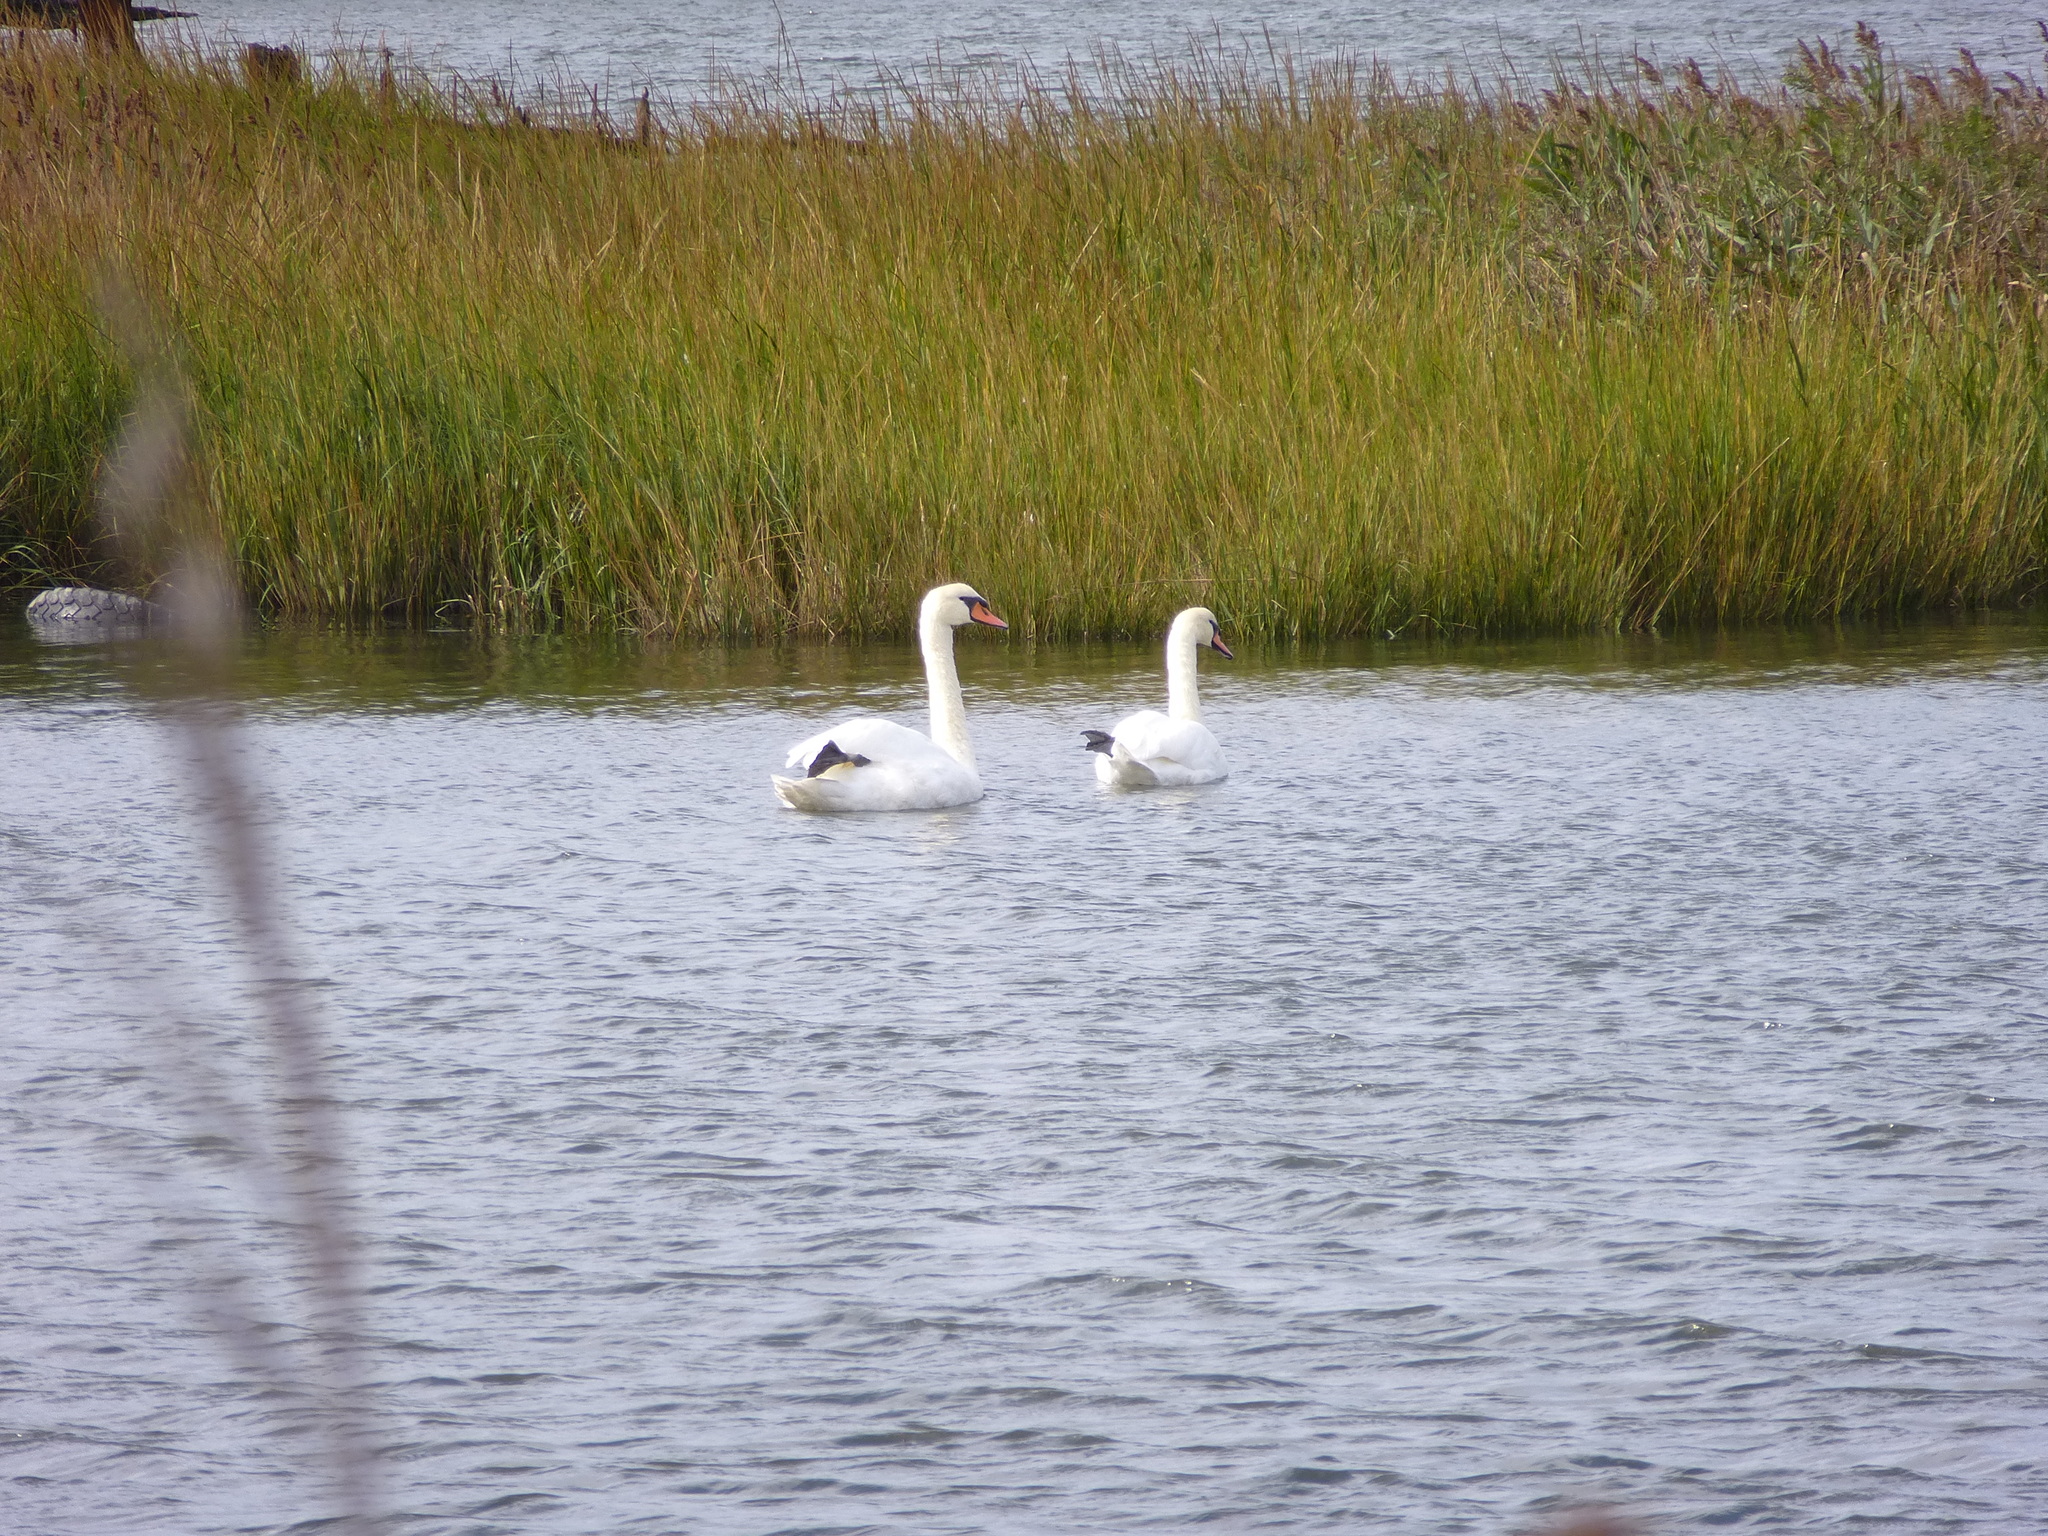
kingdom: Animalia
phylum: Chordata
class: Aves
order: Anseriformes
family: Anatidae
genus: Cygnus
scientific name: Cygnus olor
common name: Mute swan
